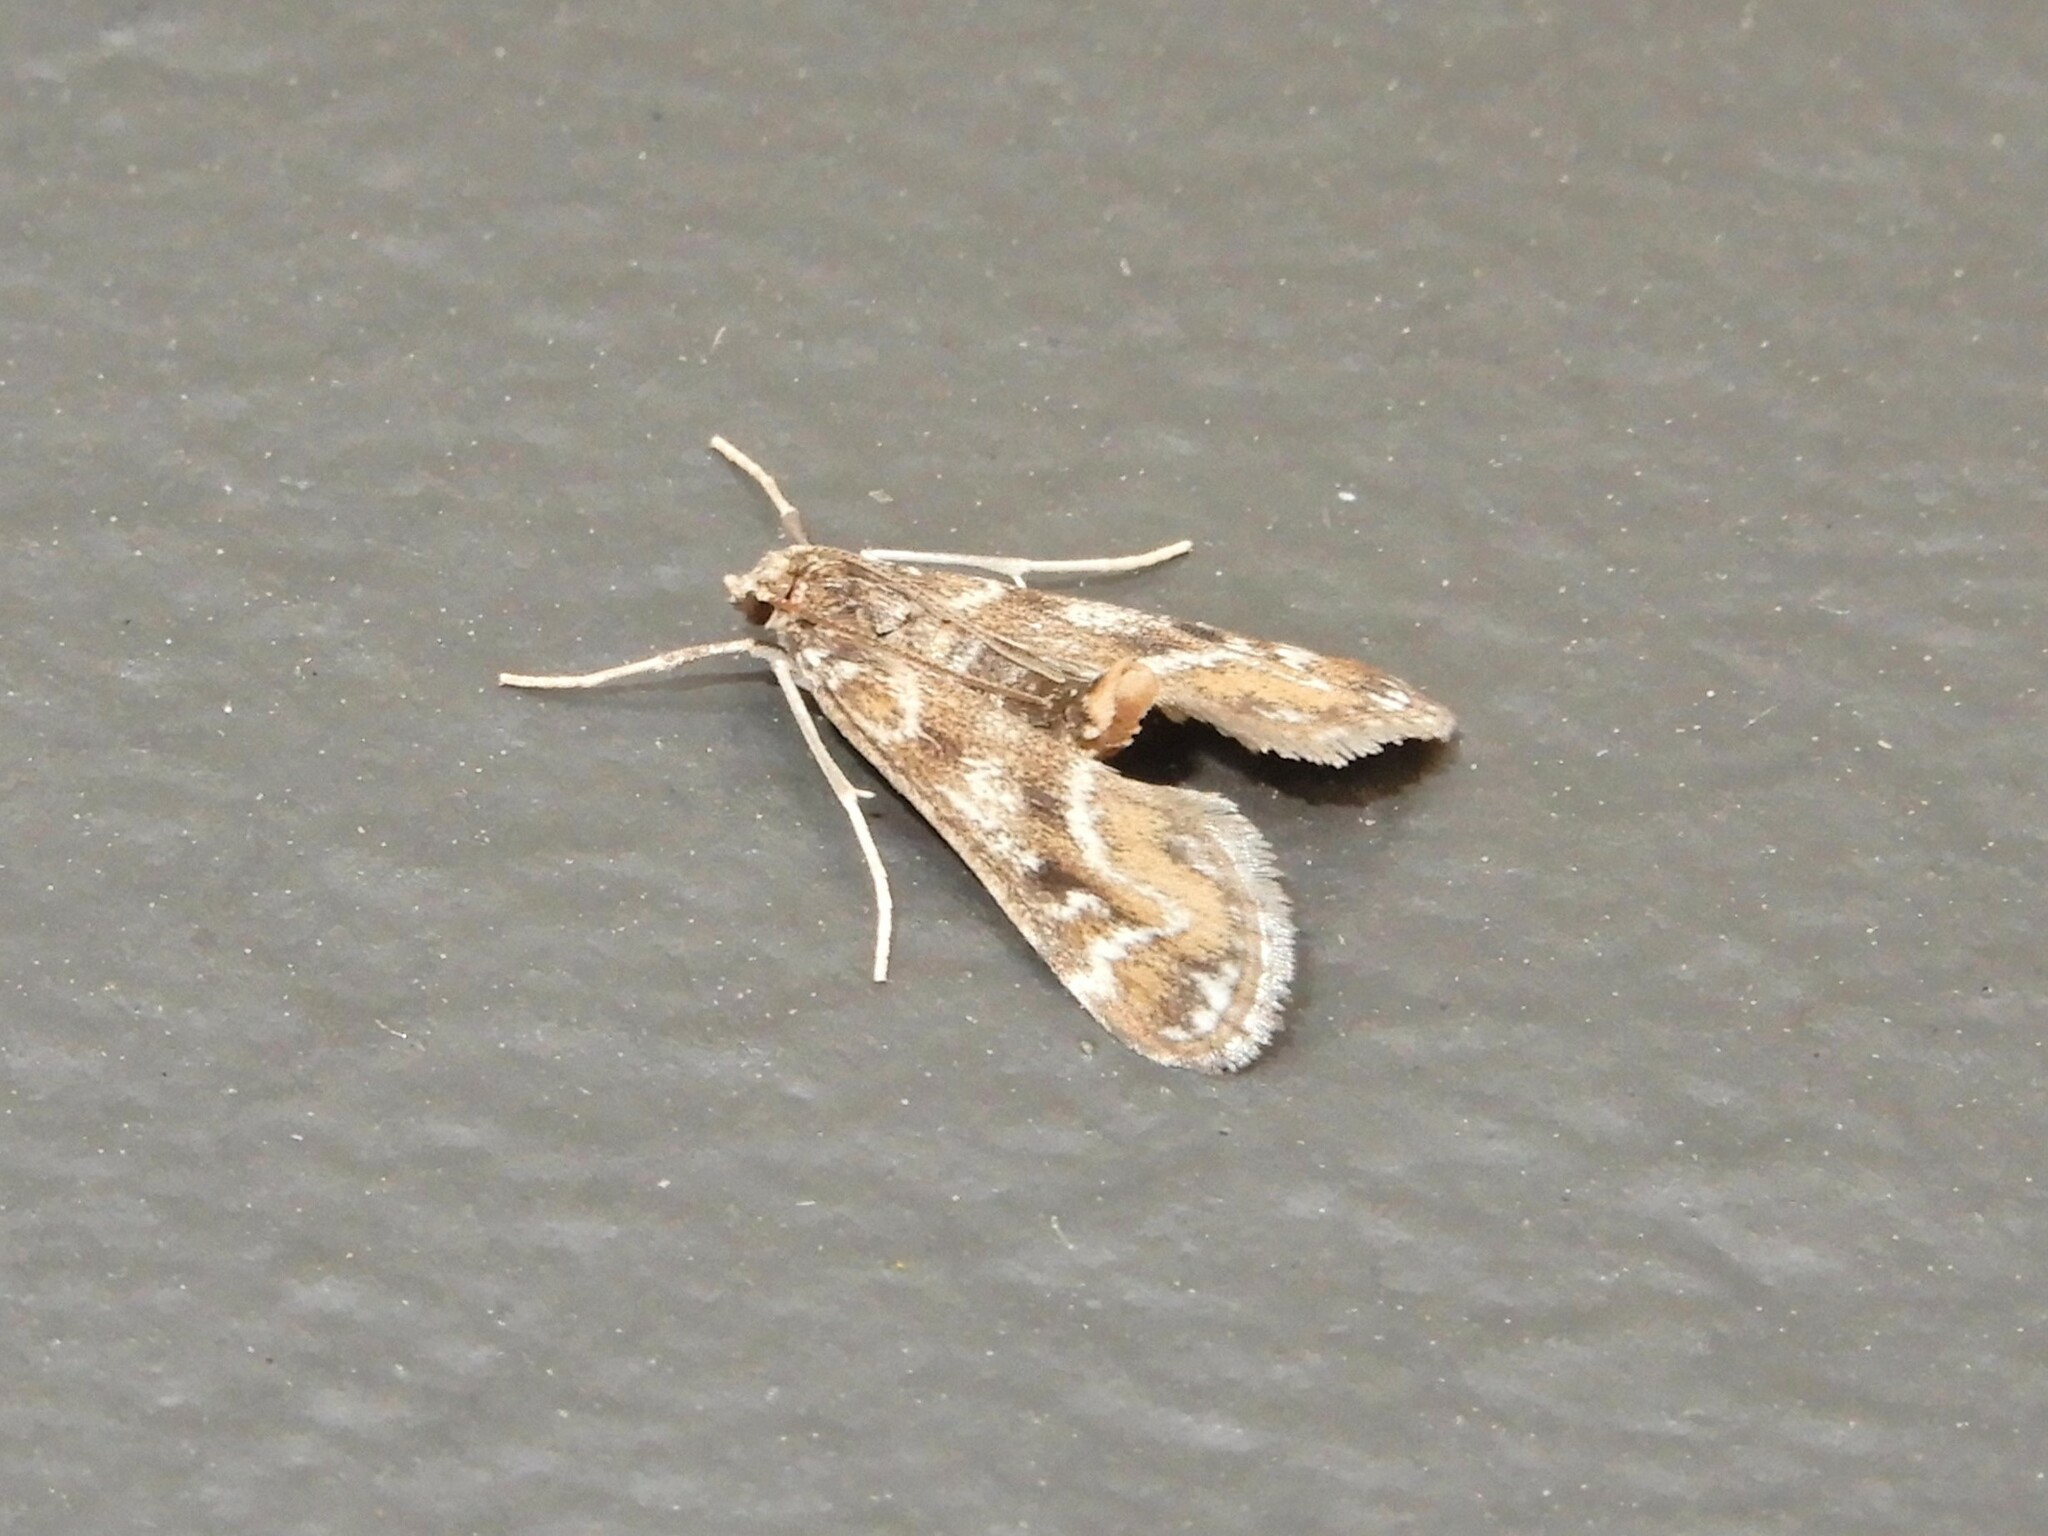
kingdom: Animalia
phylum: Arthropoda
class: Insecta
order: Lepidoptera
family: Crambidae
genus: Hygraula
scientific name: Hygraula nitens
